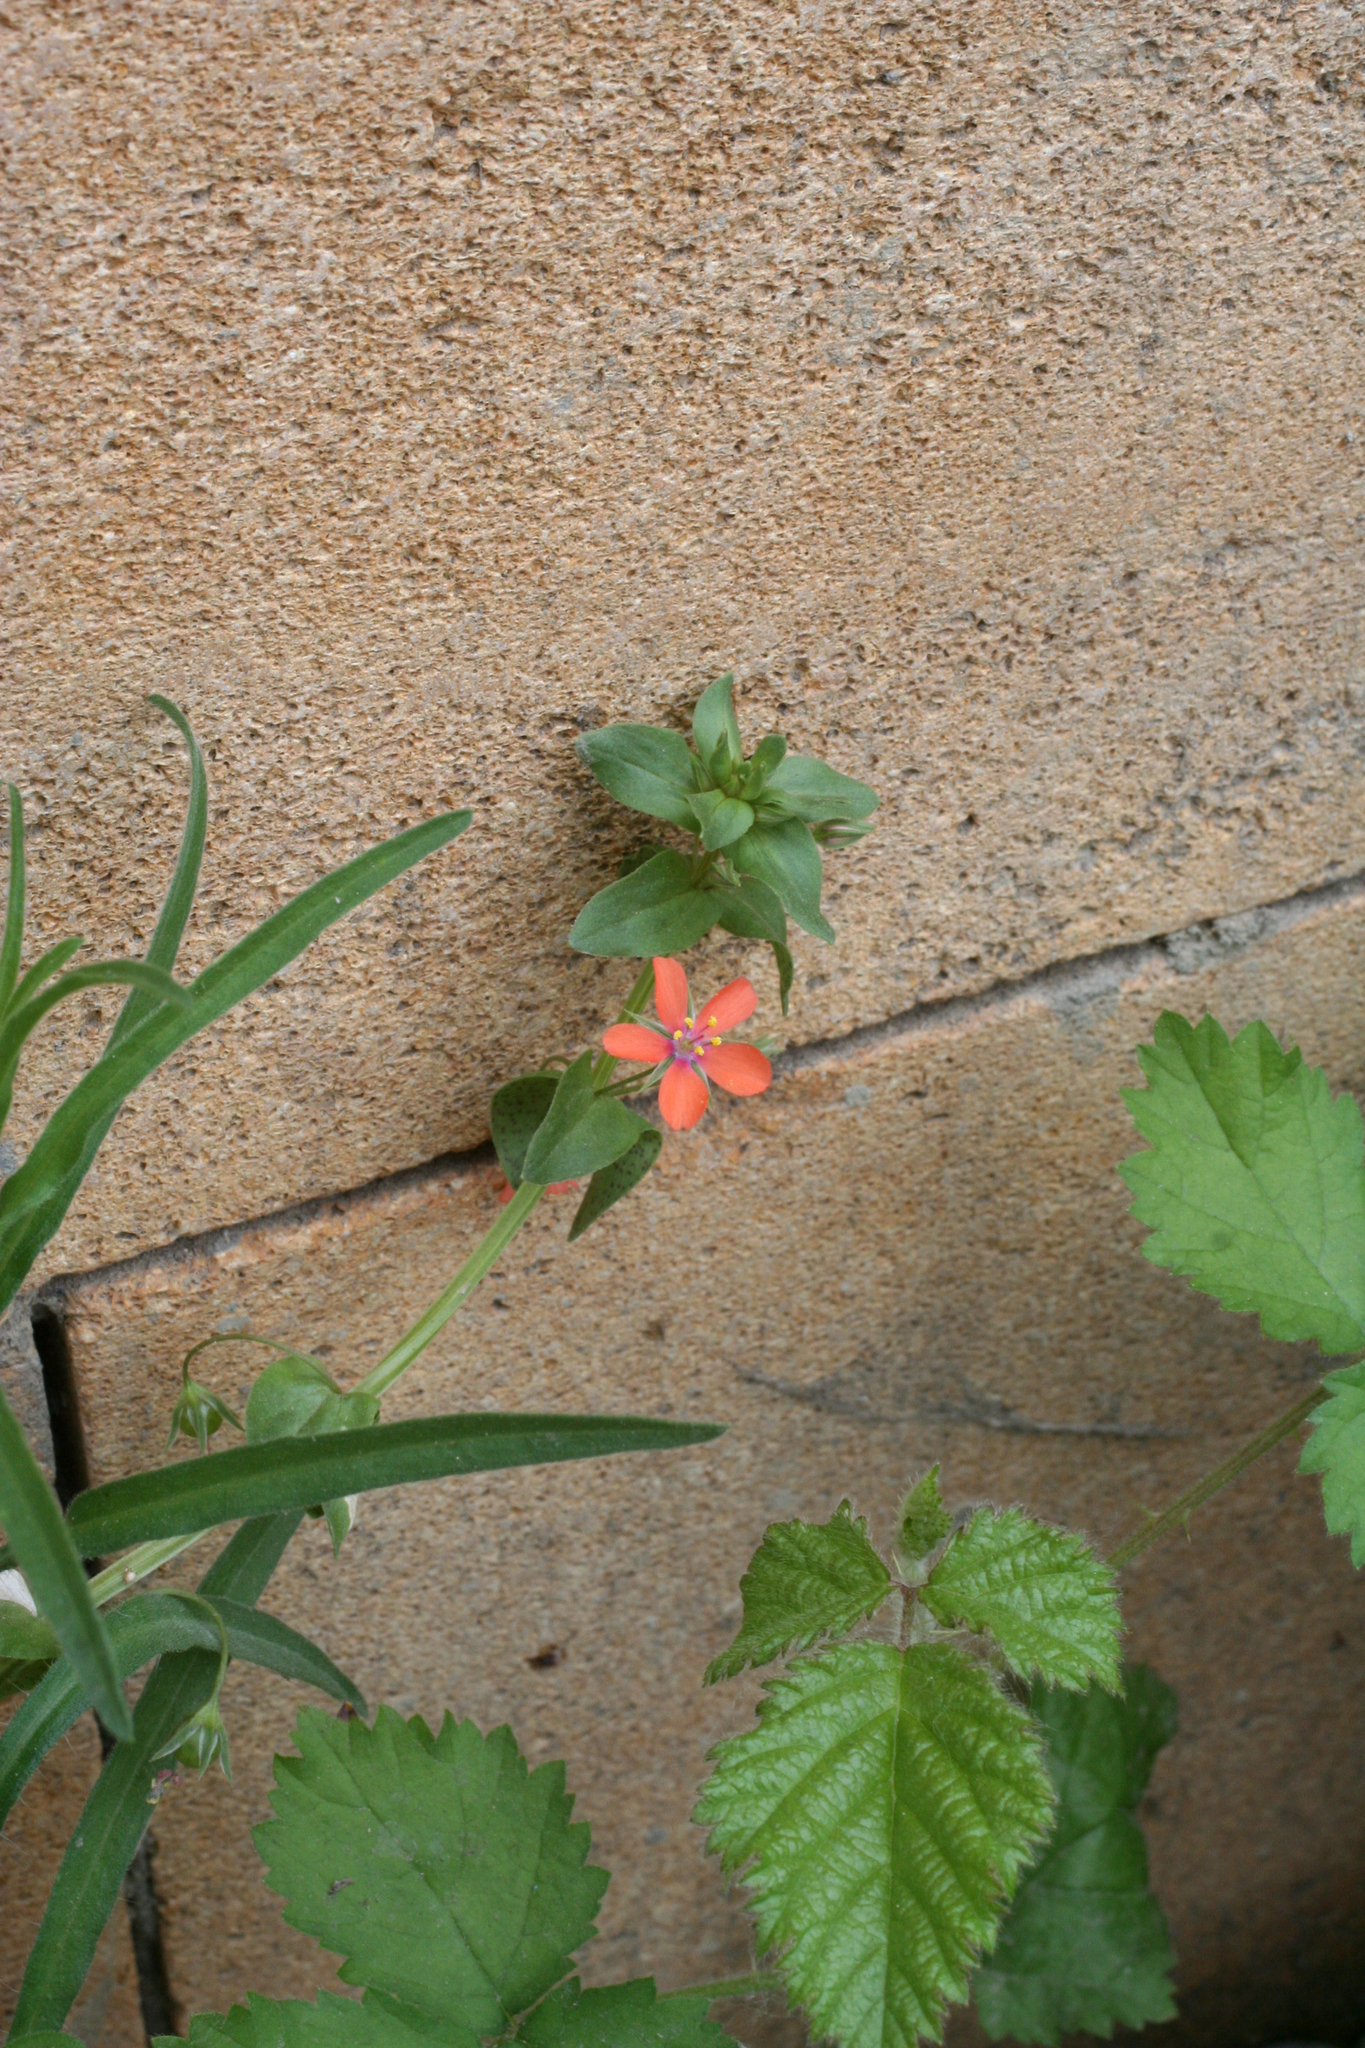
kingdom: Plantae
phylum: Tracheophyta
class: Magnoliopsida
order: Ericales
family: Primulaceae
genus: Lysimachia
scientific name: Lysimachia arvensis
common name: Scarlet pimpernel
